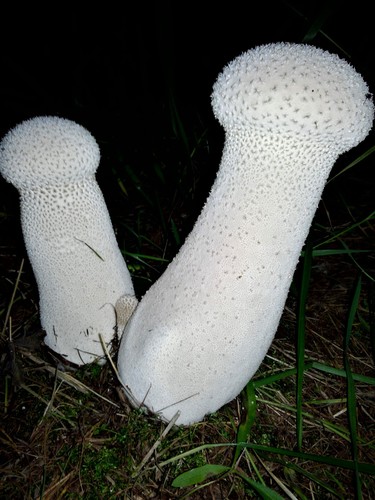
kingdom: Fungi
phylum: Basidiomycota
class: Agaricomycetes
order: Agaricales
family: Lycoperdaceae
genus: Lycoperdon
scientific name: Lycoperdon excipuliforme
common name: Pestle puffball
